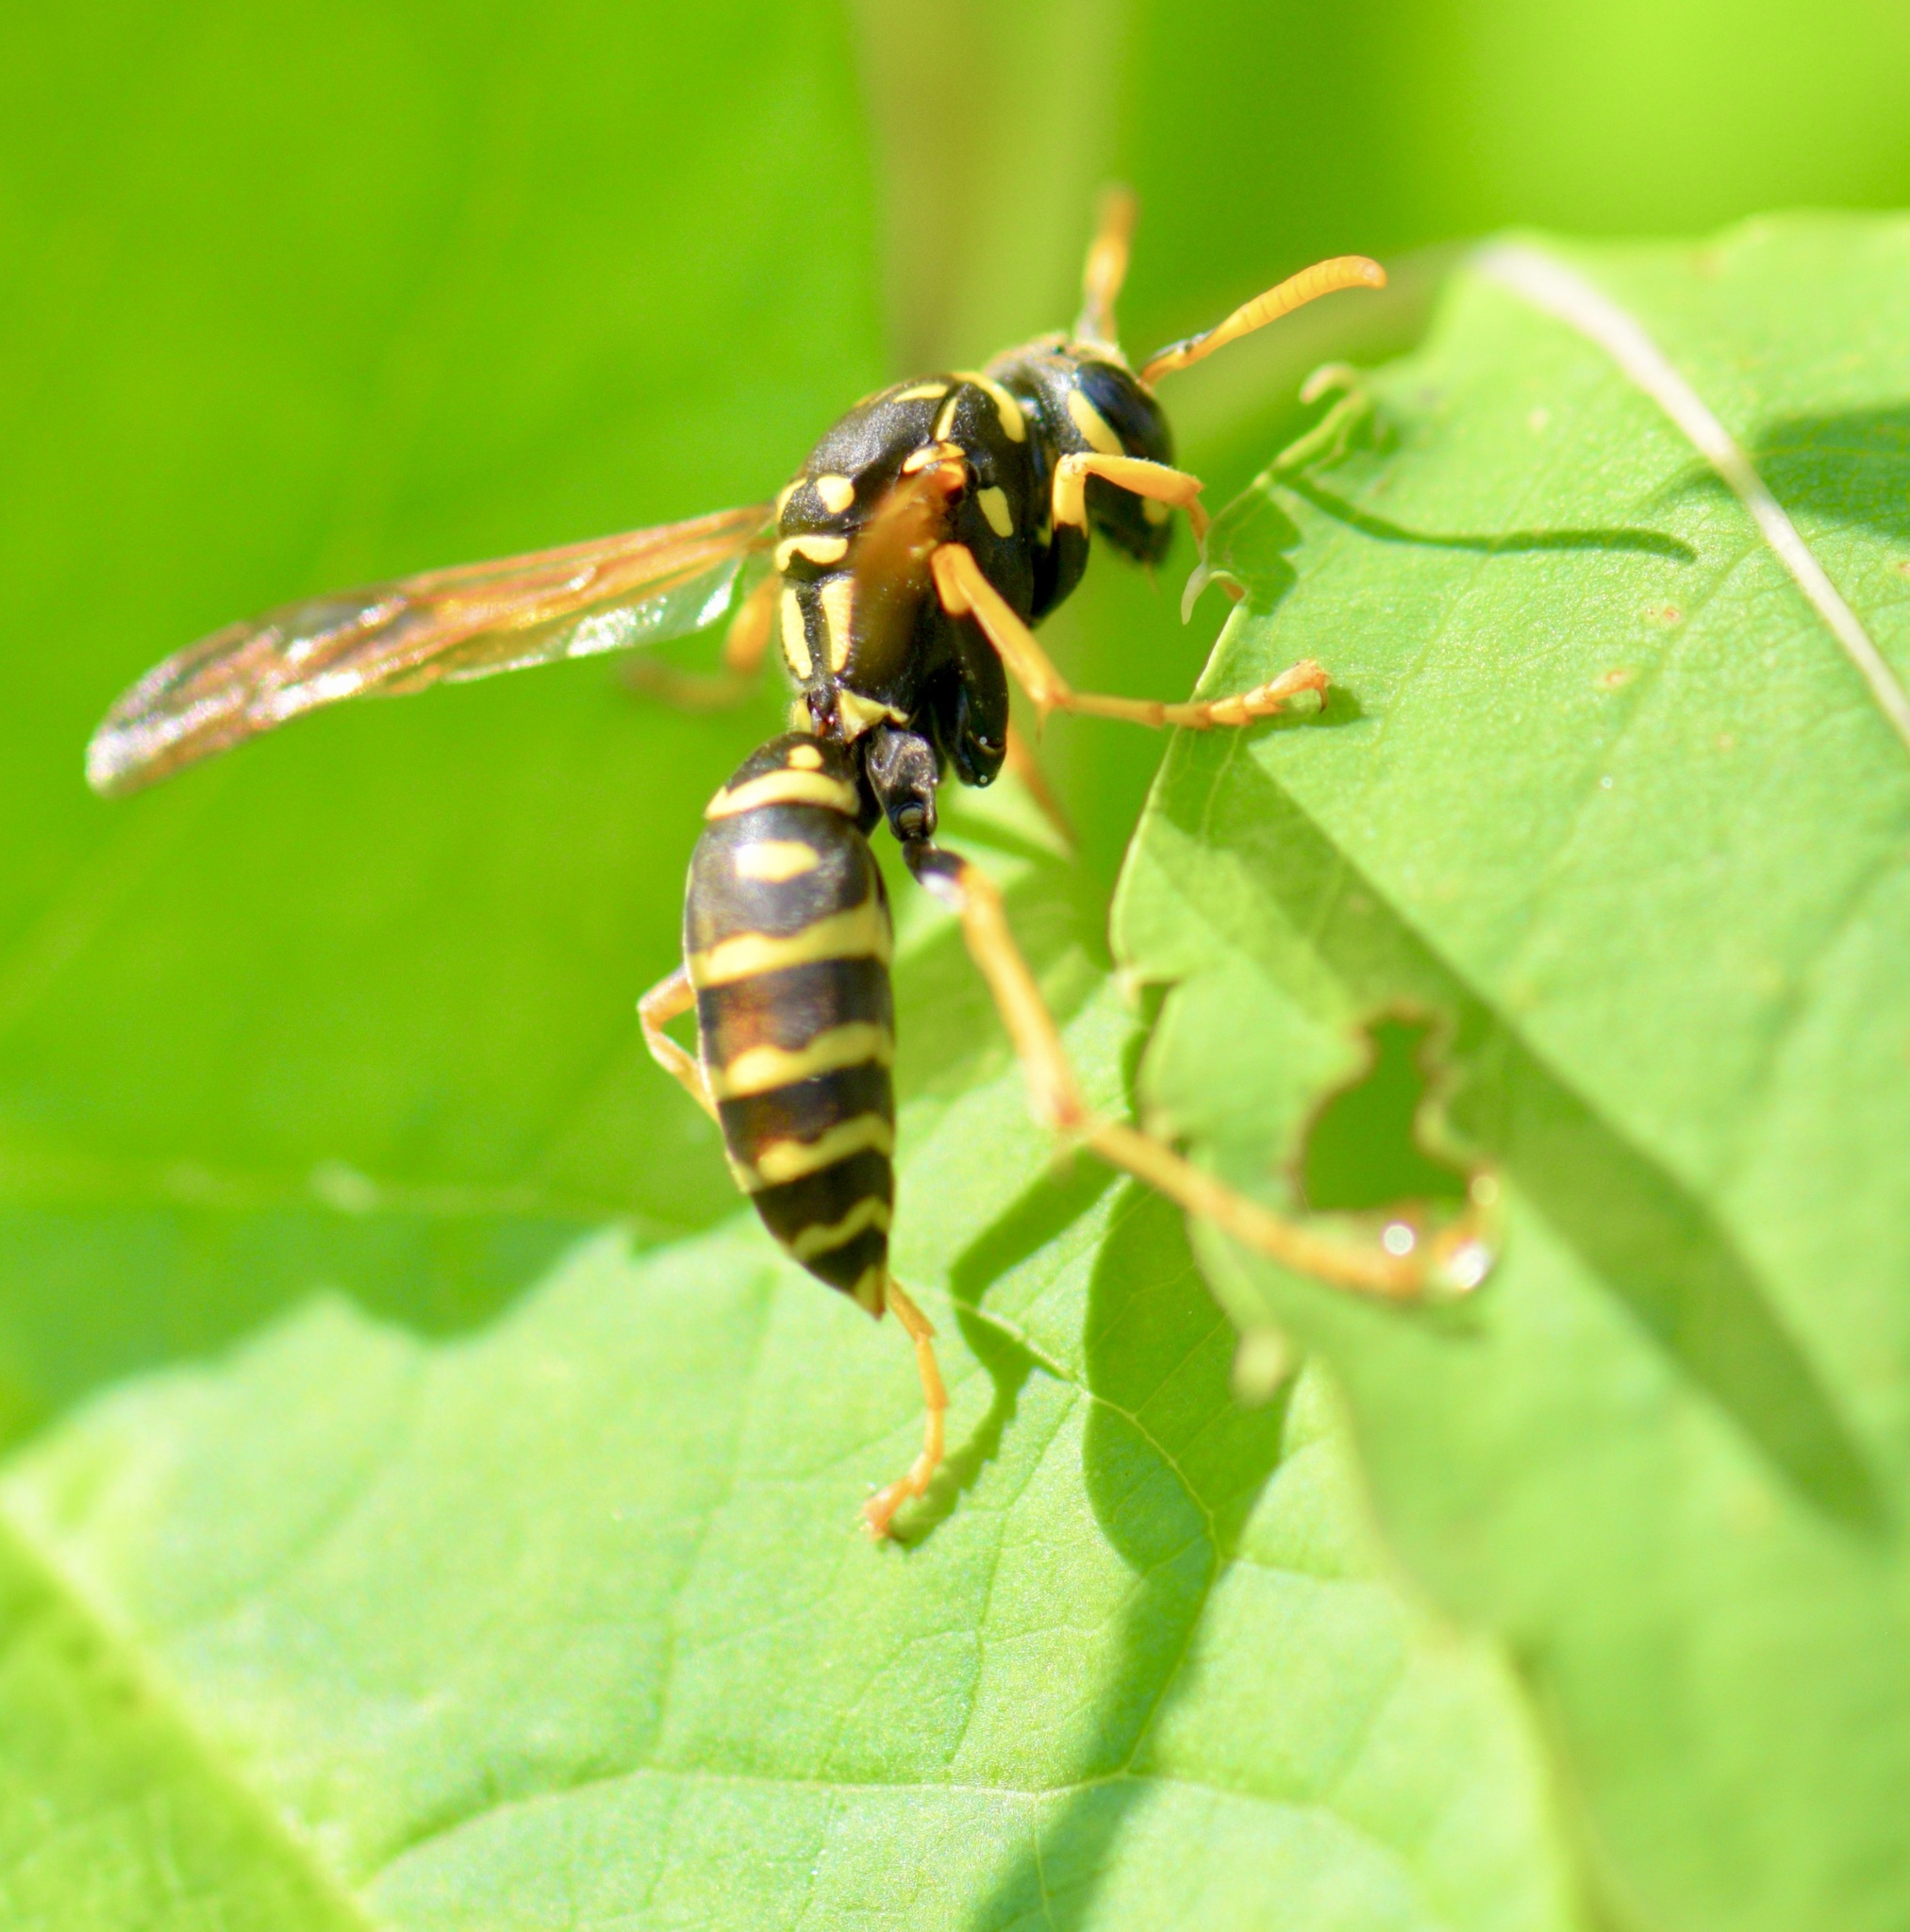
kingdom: Animalia
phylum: Arthropoda
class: Insecta
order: Hymenoptera
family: Eumenidae
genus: Polistes
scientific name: Polistes dominula
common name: Paper wasp
